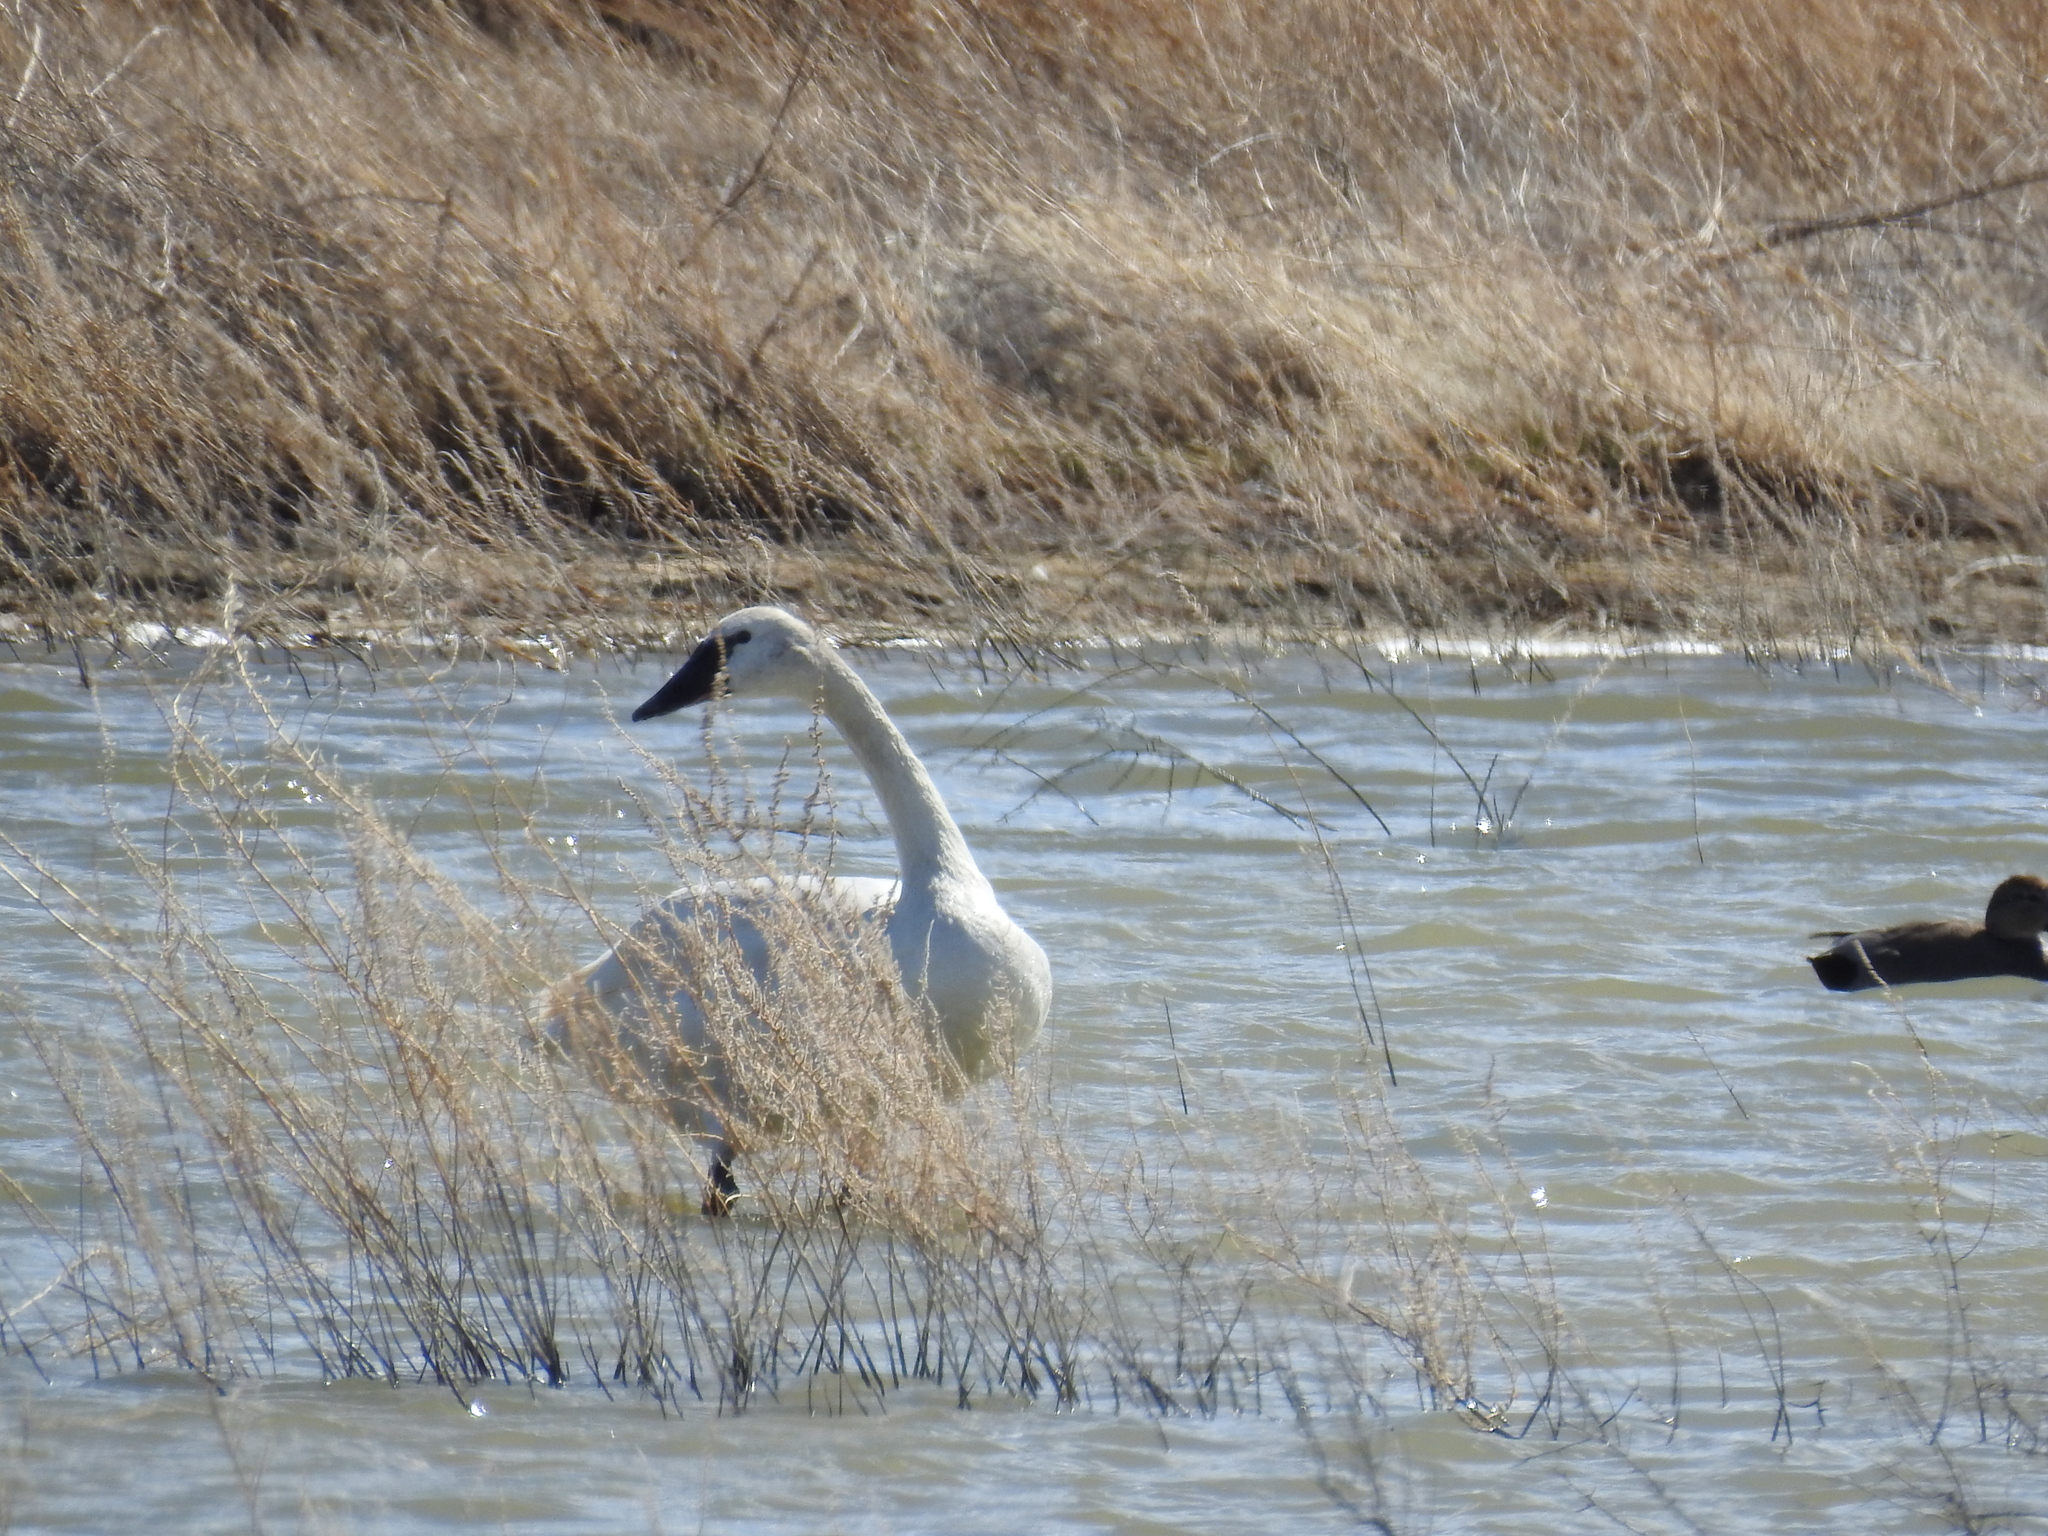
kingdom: Animalia
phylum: Chordata
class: Aves
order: Anseriformes
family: Anatidae
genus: Cygnus
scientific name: Cygnus columbianus
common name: Tundra swan
